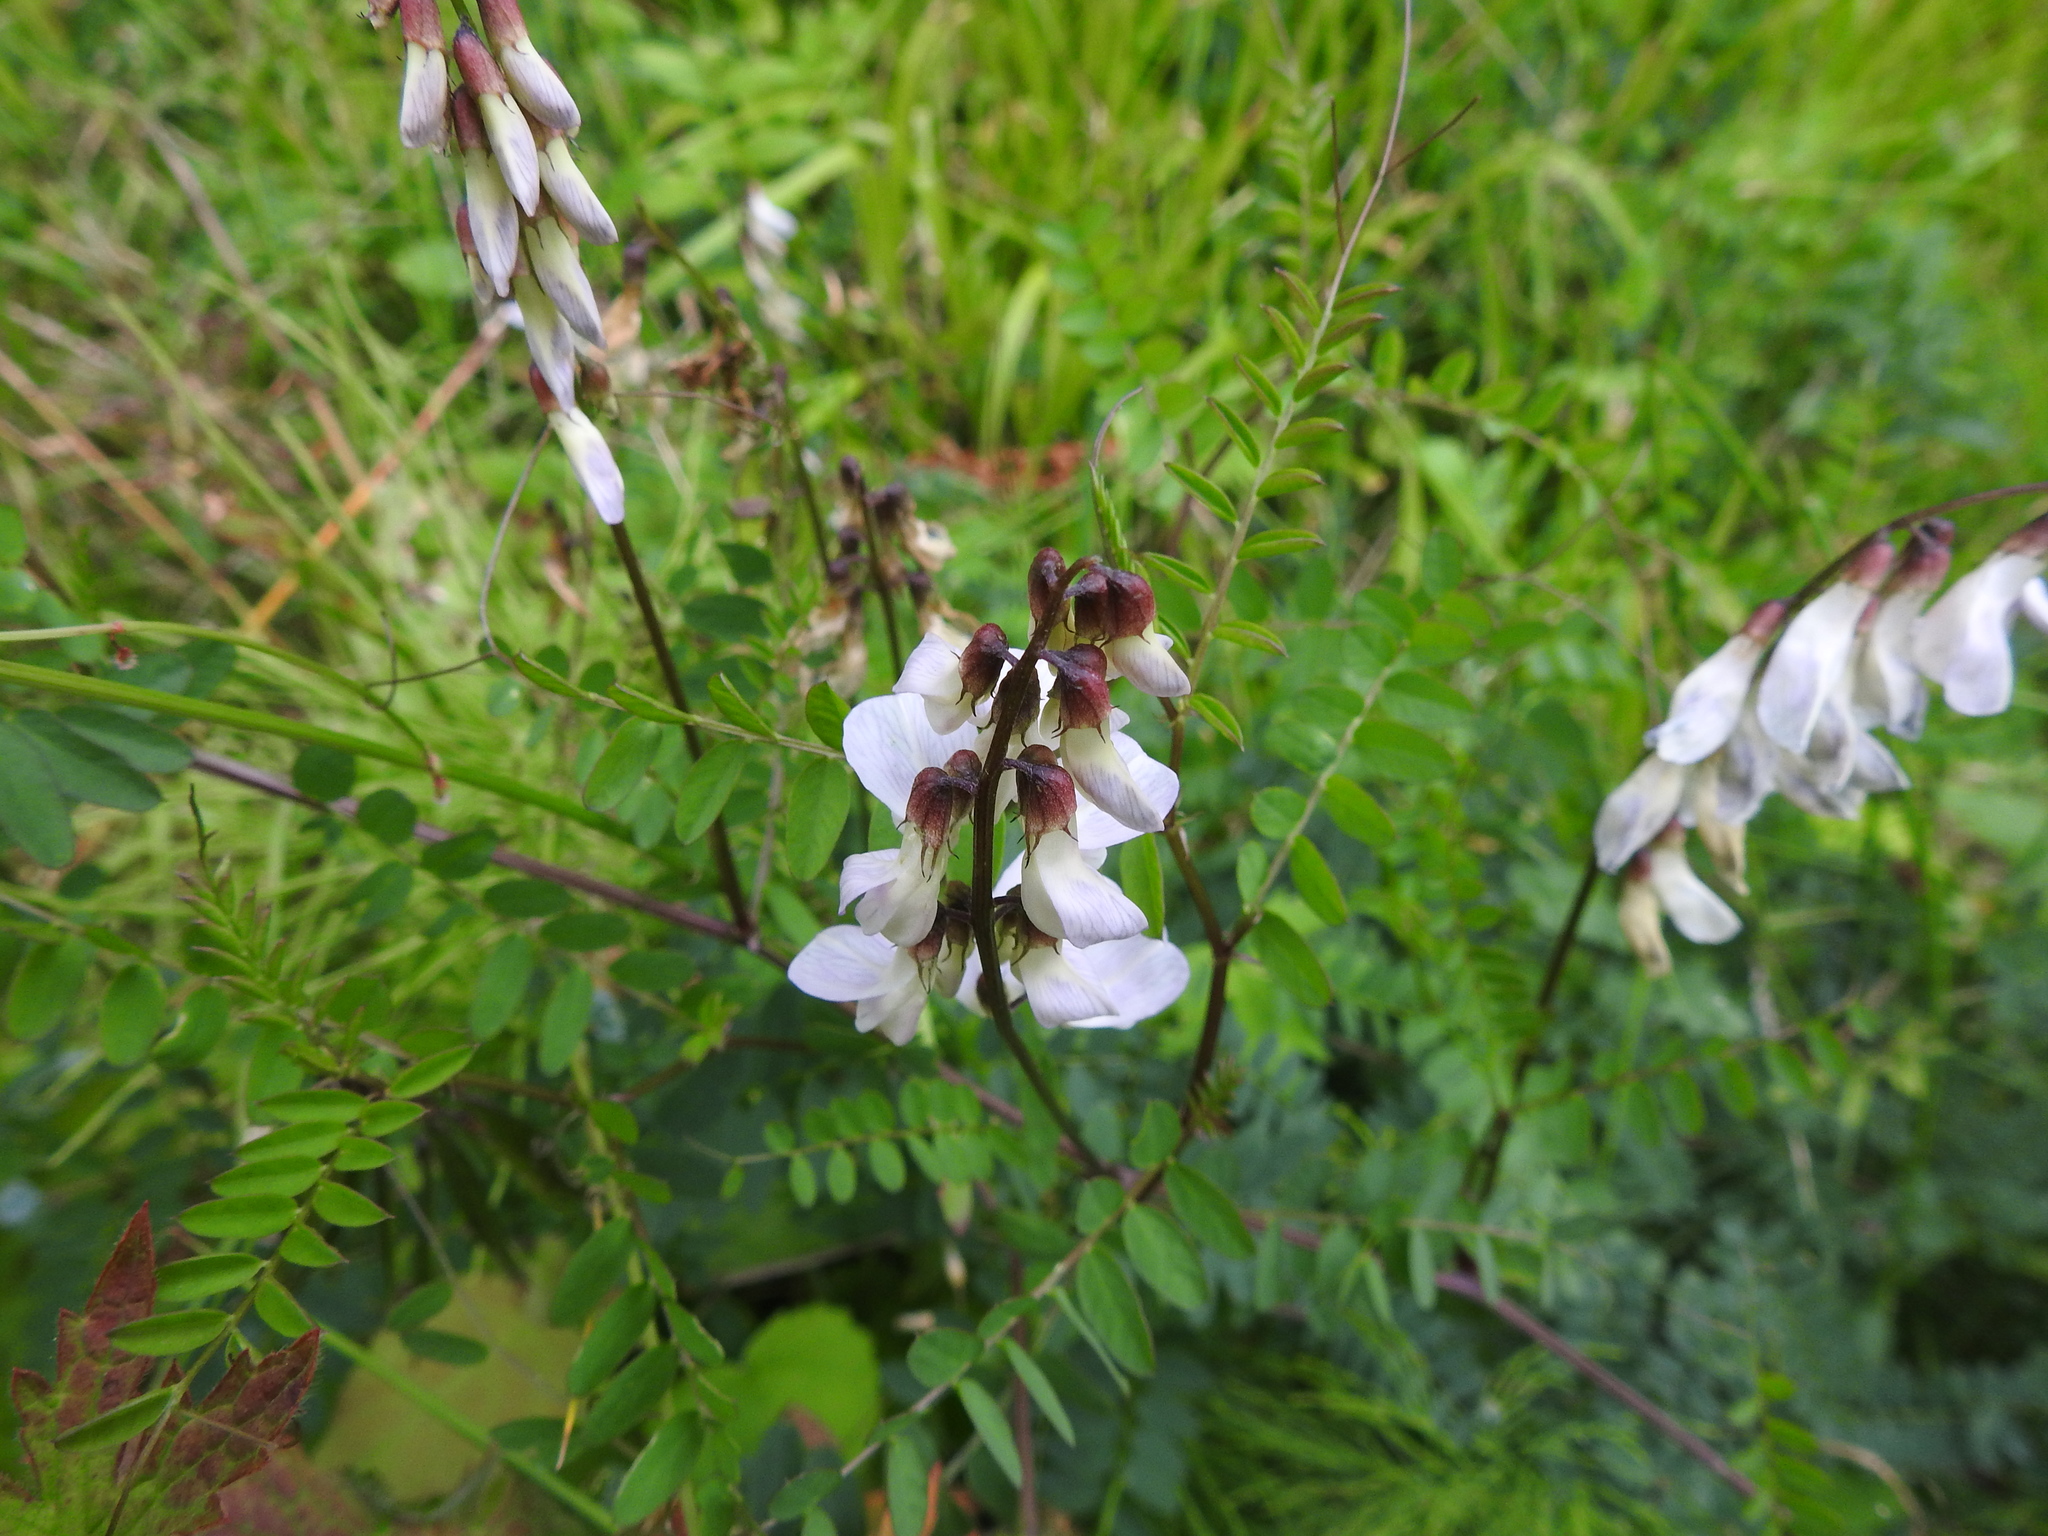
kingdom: Plantae
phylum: Tracheophyta
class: Magnoliopsida
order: Fabales
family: Fabaceae
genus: Vicia
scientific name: Vicia sylvatica
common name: Wood vetch
